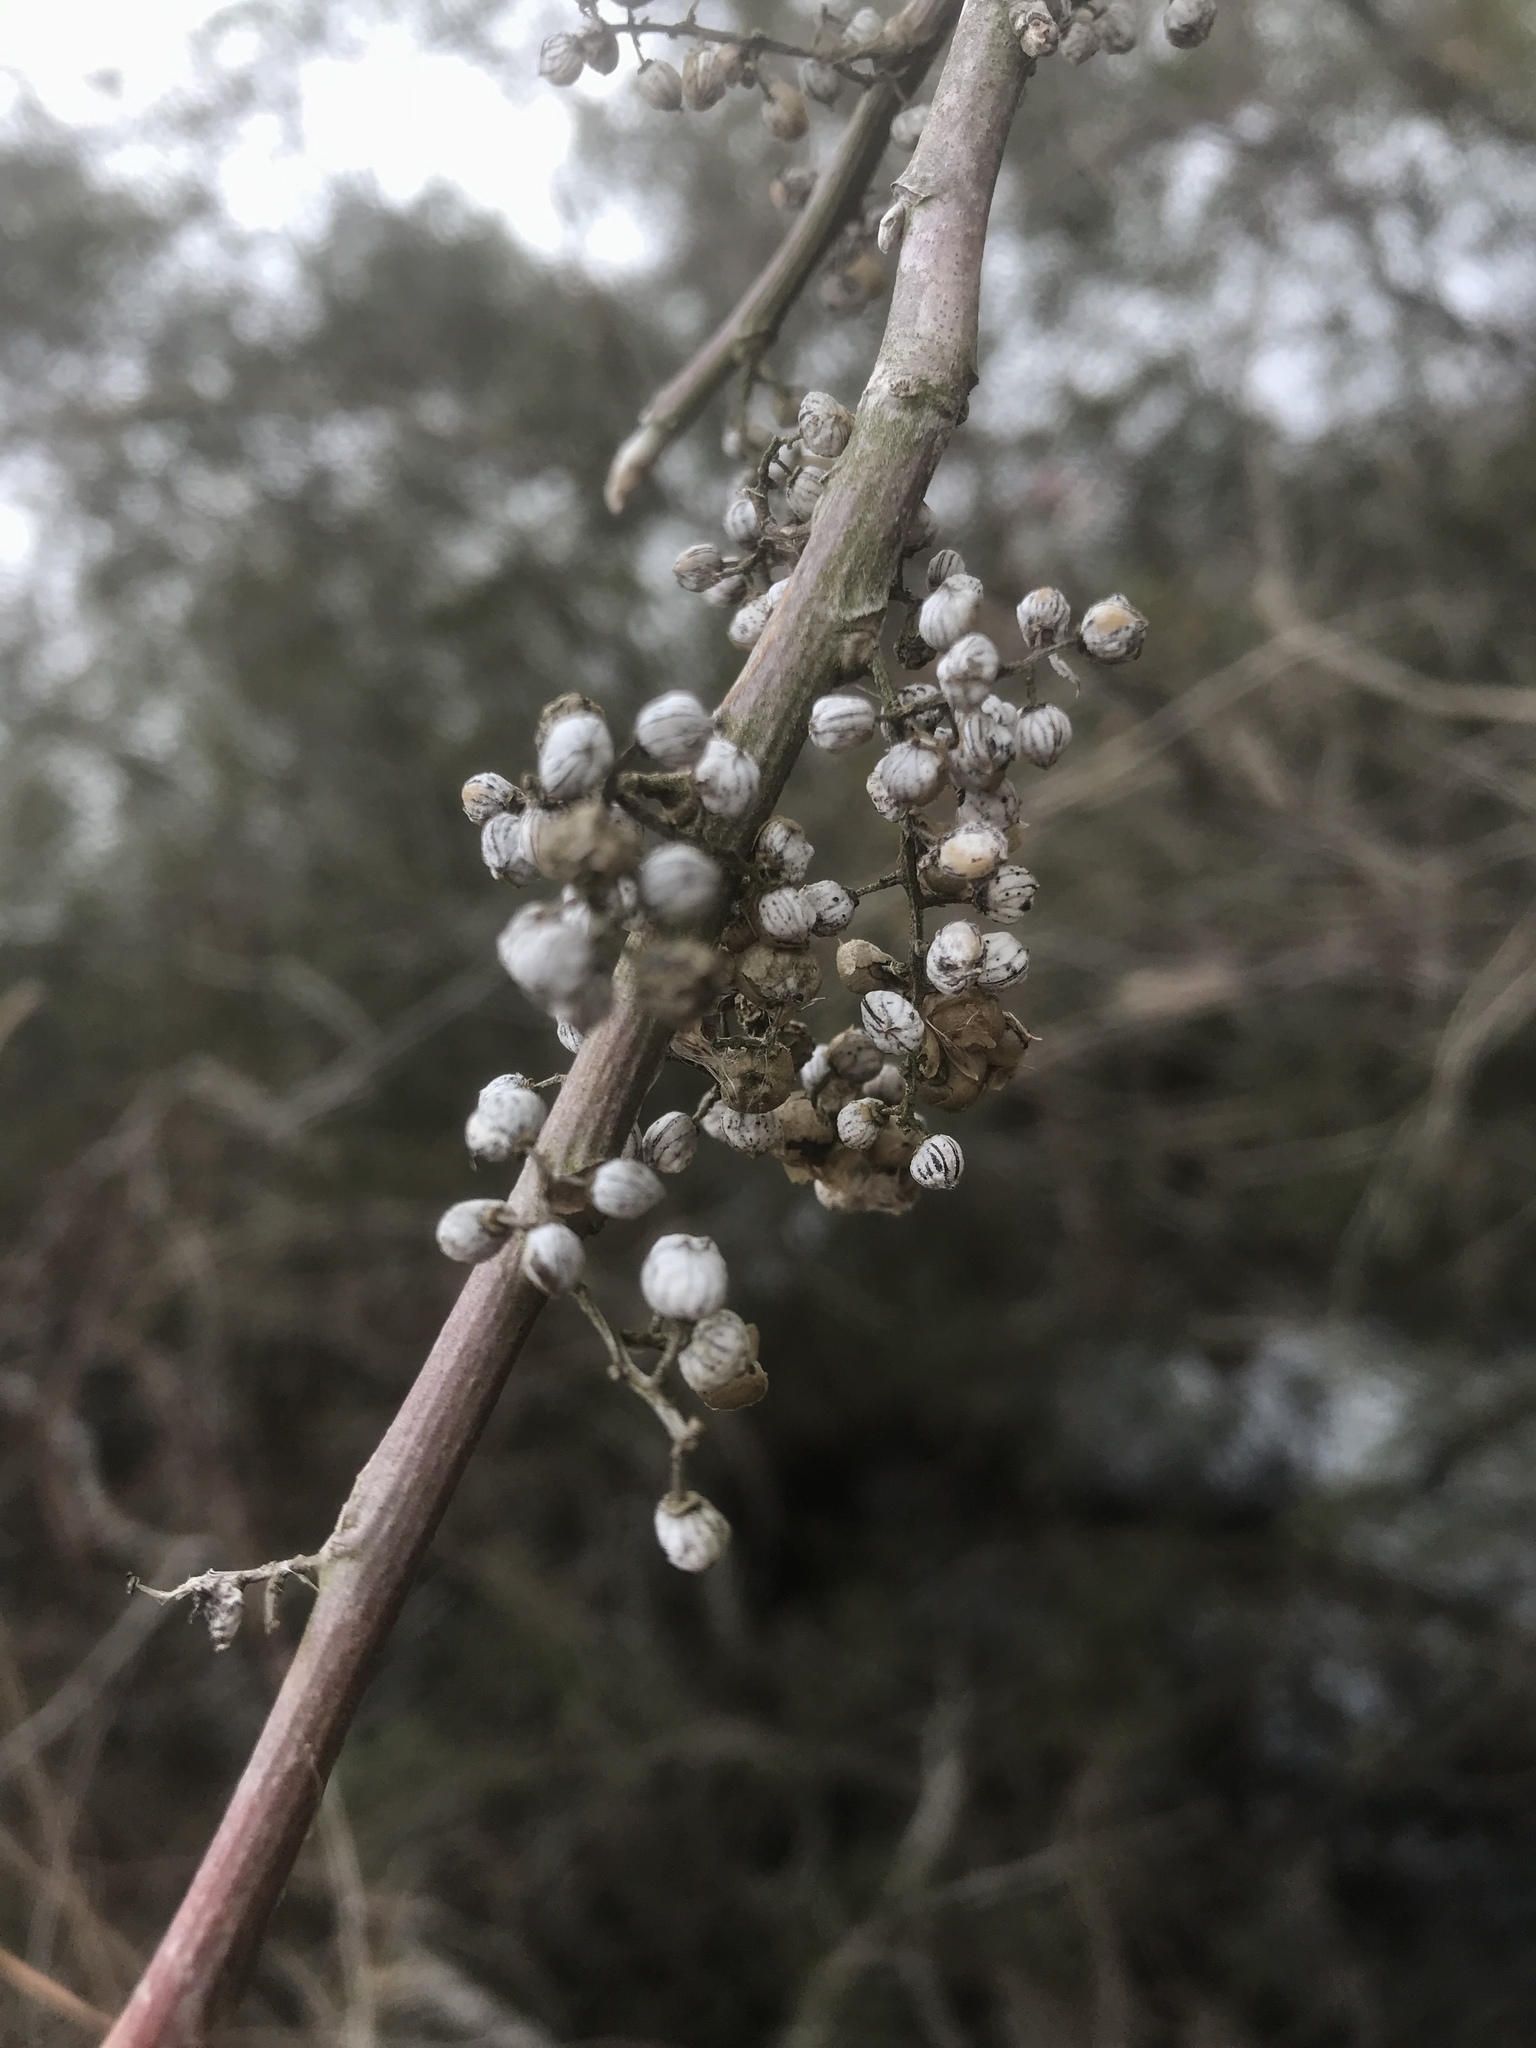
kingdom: Plantae
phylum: Tracheophyta
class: Magnoliopsida
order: Sapindales
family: Anacardiaceae
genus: Toxicodendron
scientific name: Toxicodendron radicans
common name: Poison ivy
